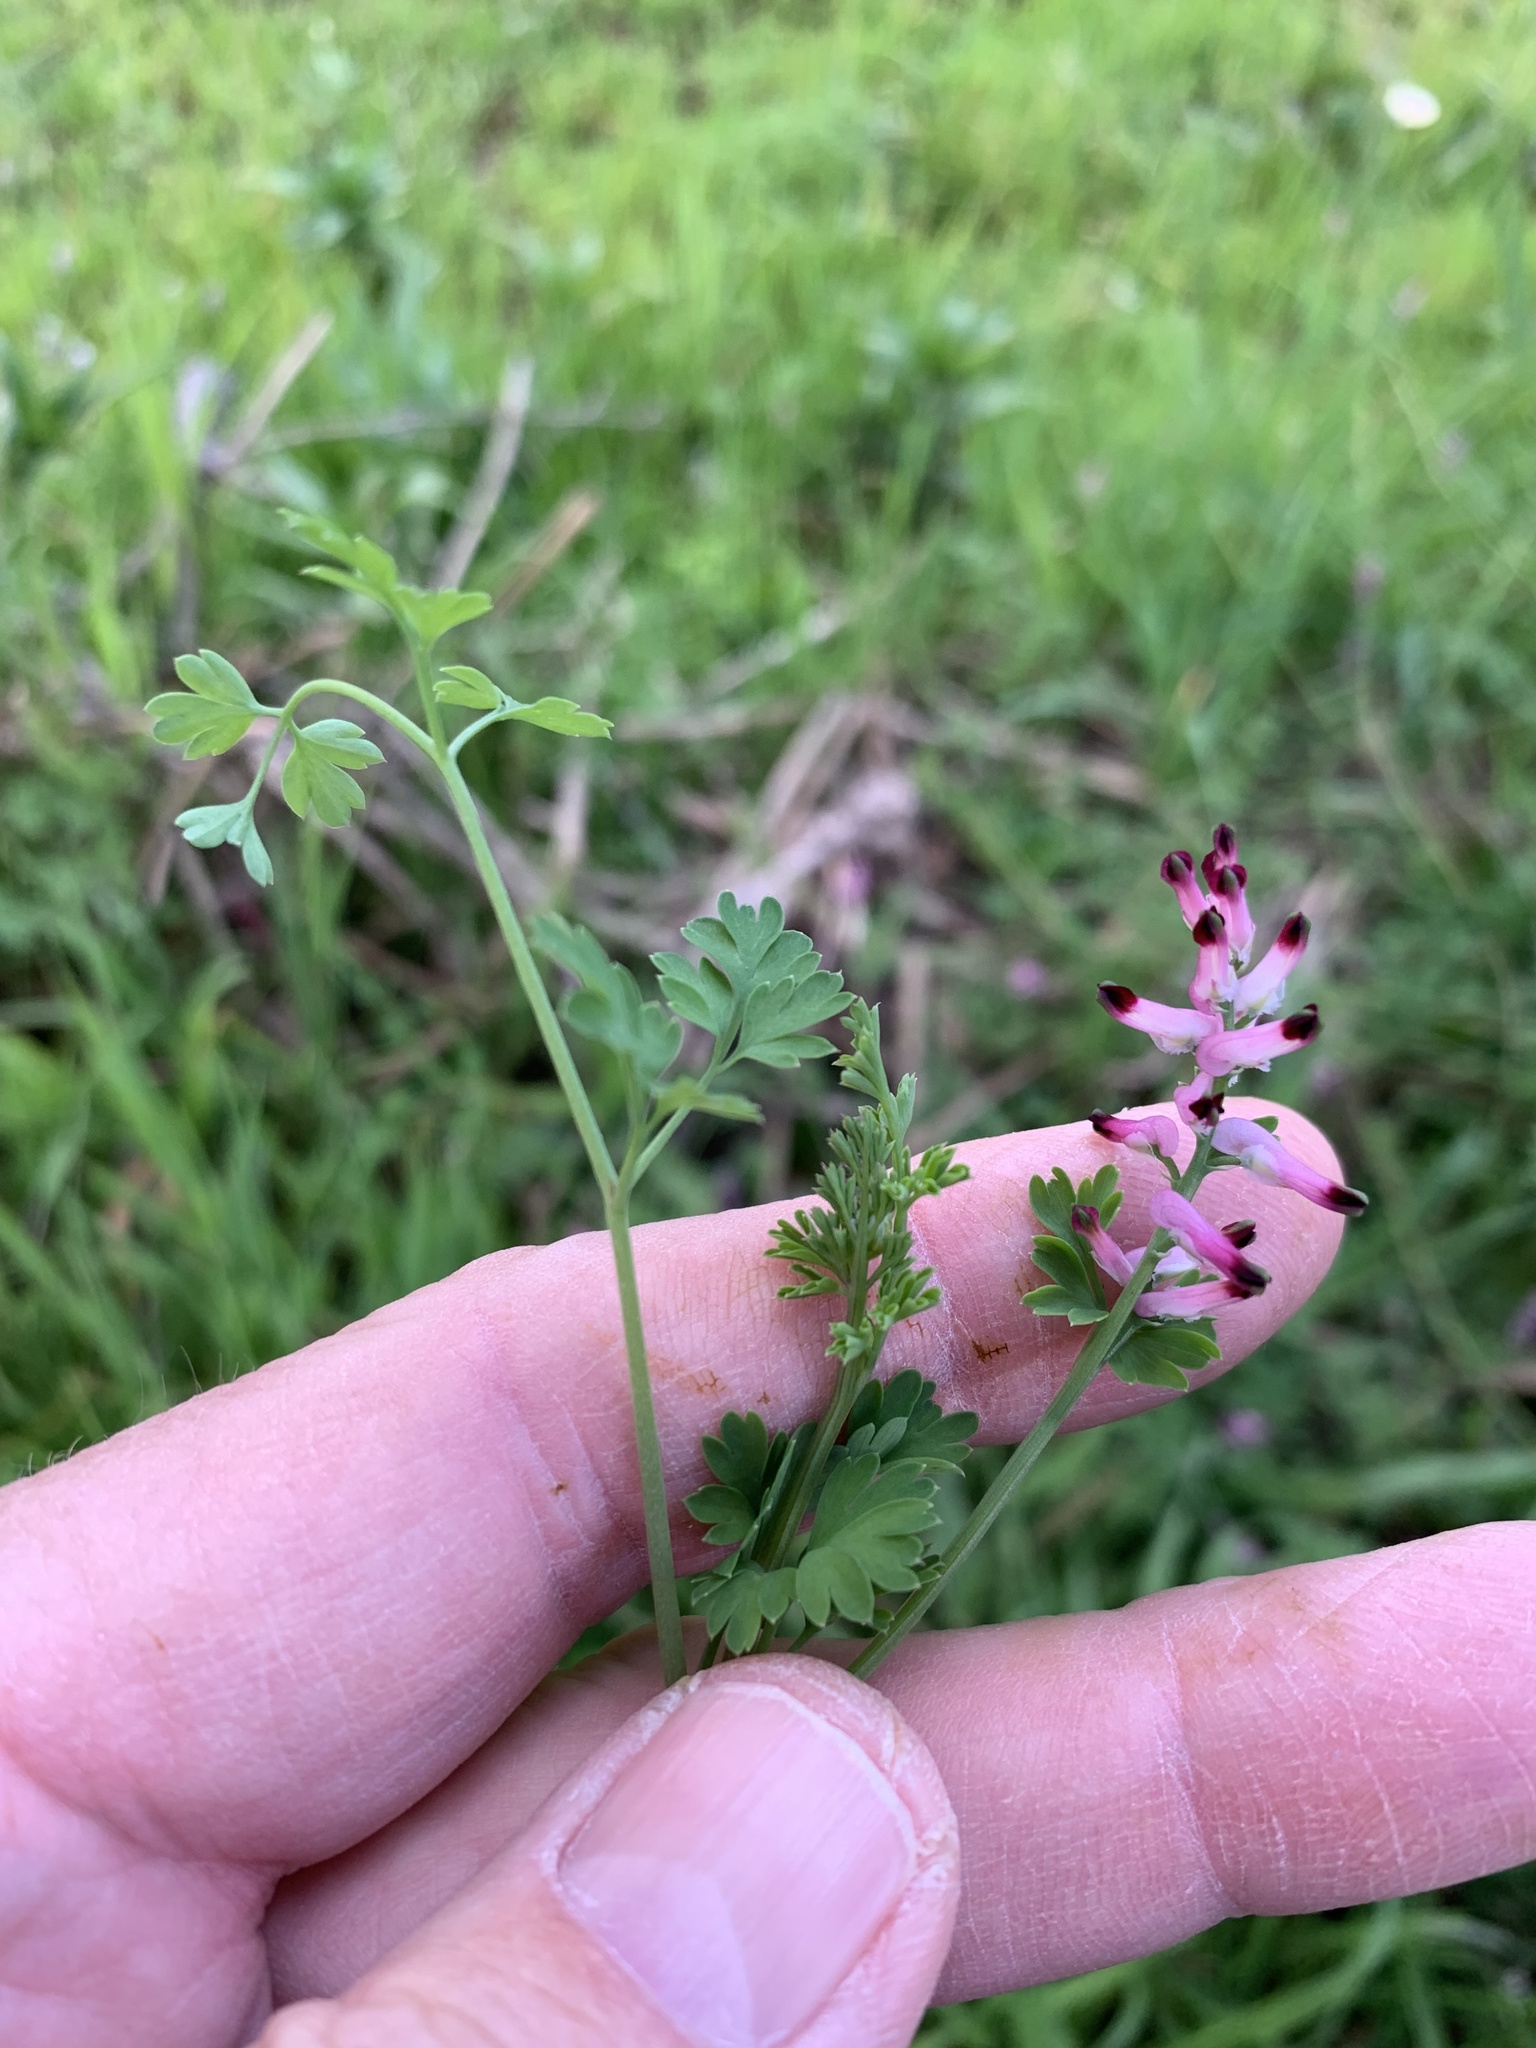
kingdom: Plantae
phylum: Tracheophyta
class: Magnoliopsida
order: Ranunculales
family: Papaveraceae
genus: Fumaria
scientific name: Fumaria muralis
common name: Common ramping-fumitory
